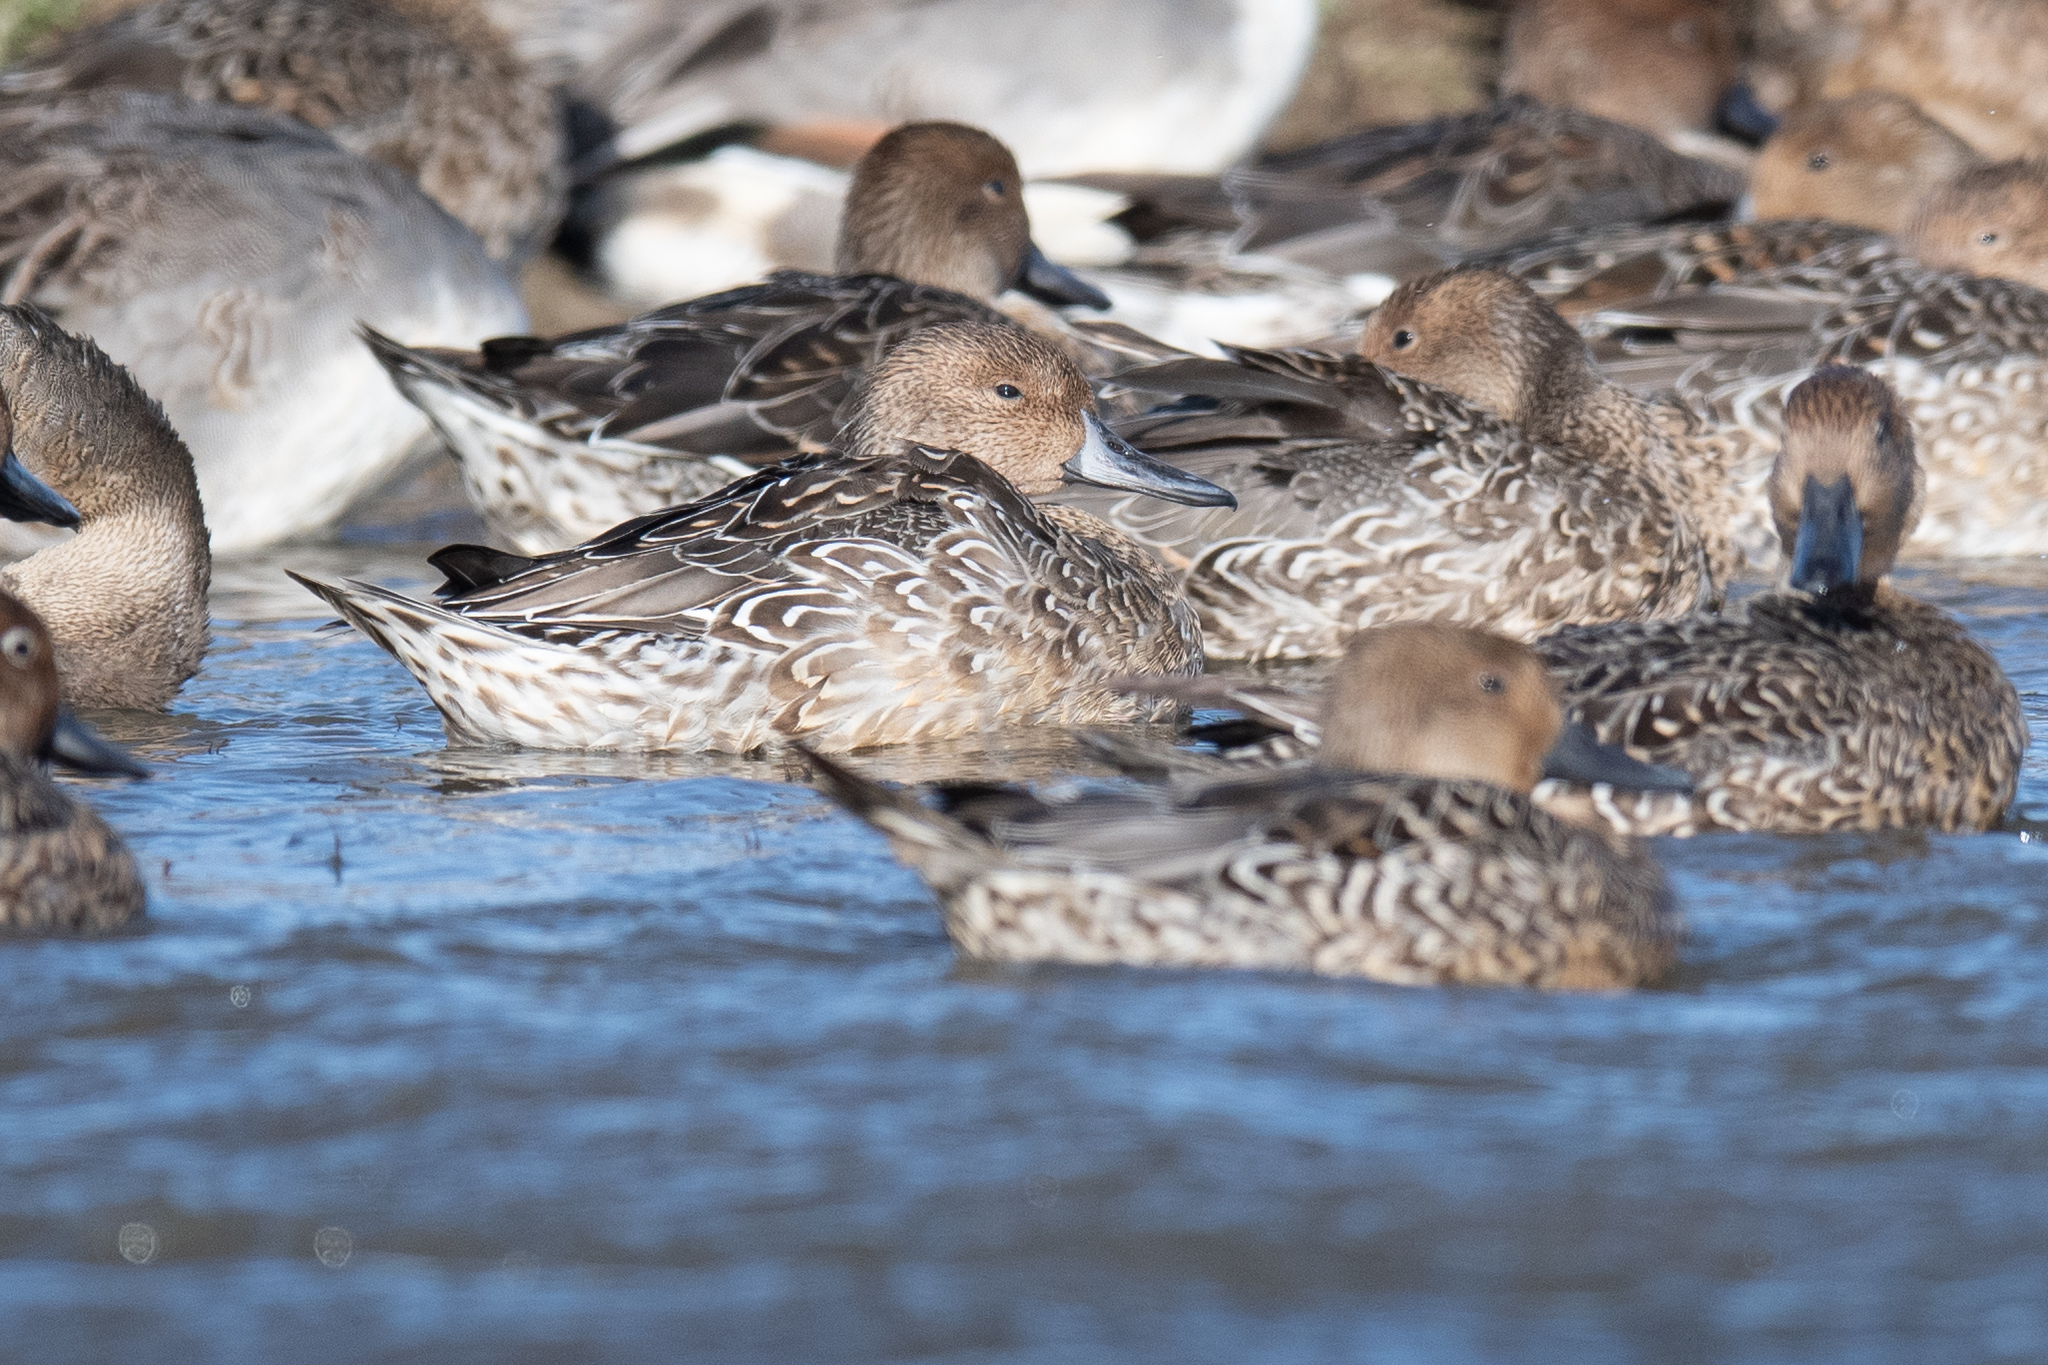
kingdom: Animalia
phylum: Chordata
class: Aves
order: Anseriformes
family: Anatidae
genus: Anas
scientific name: Anas acuta
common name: Northern pintail
